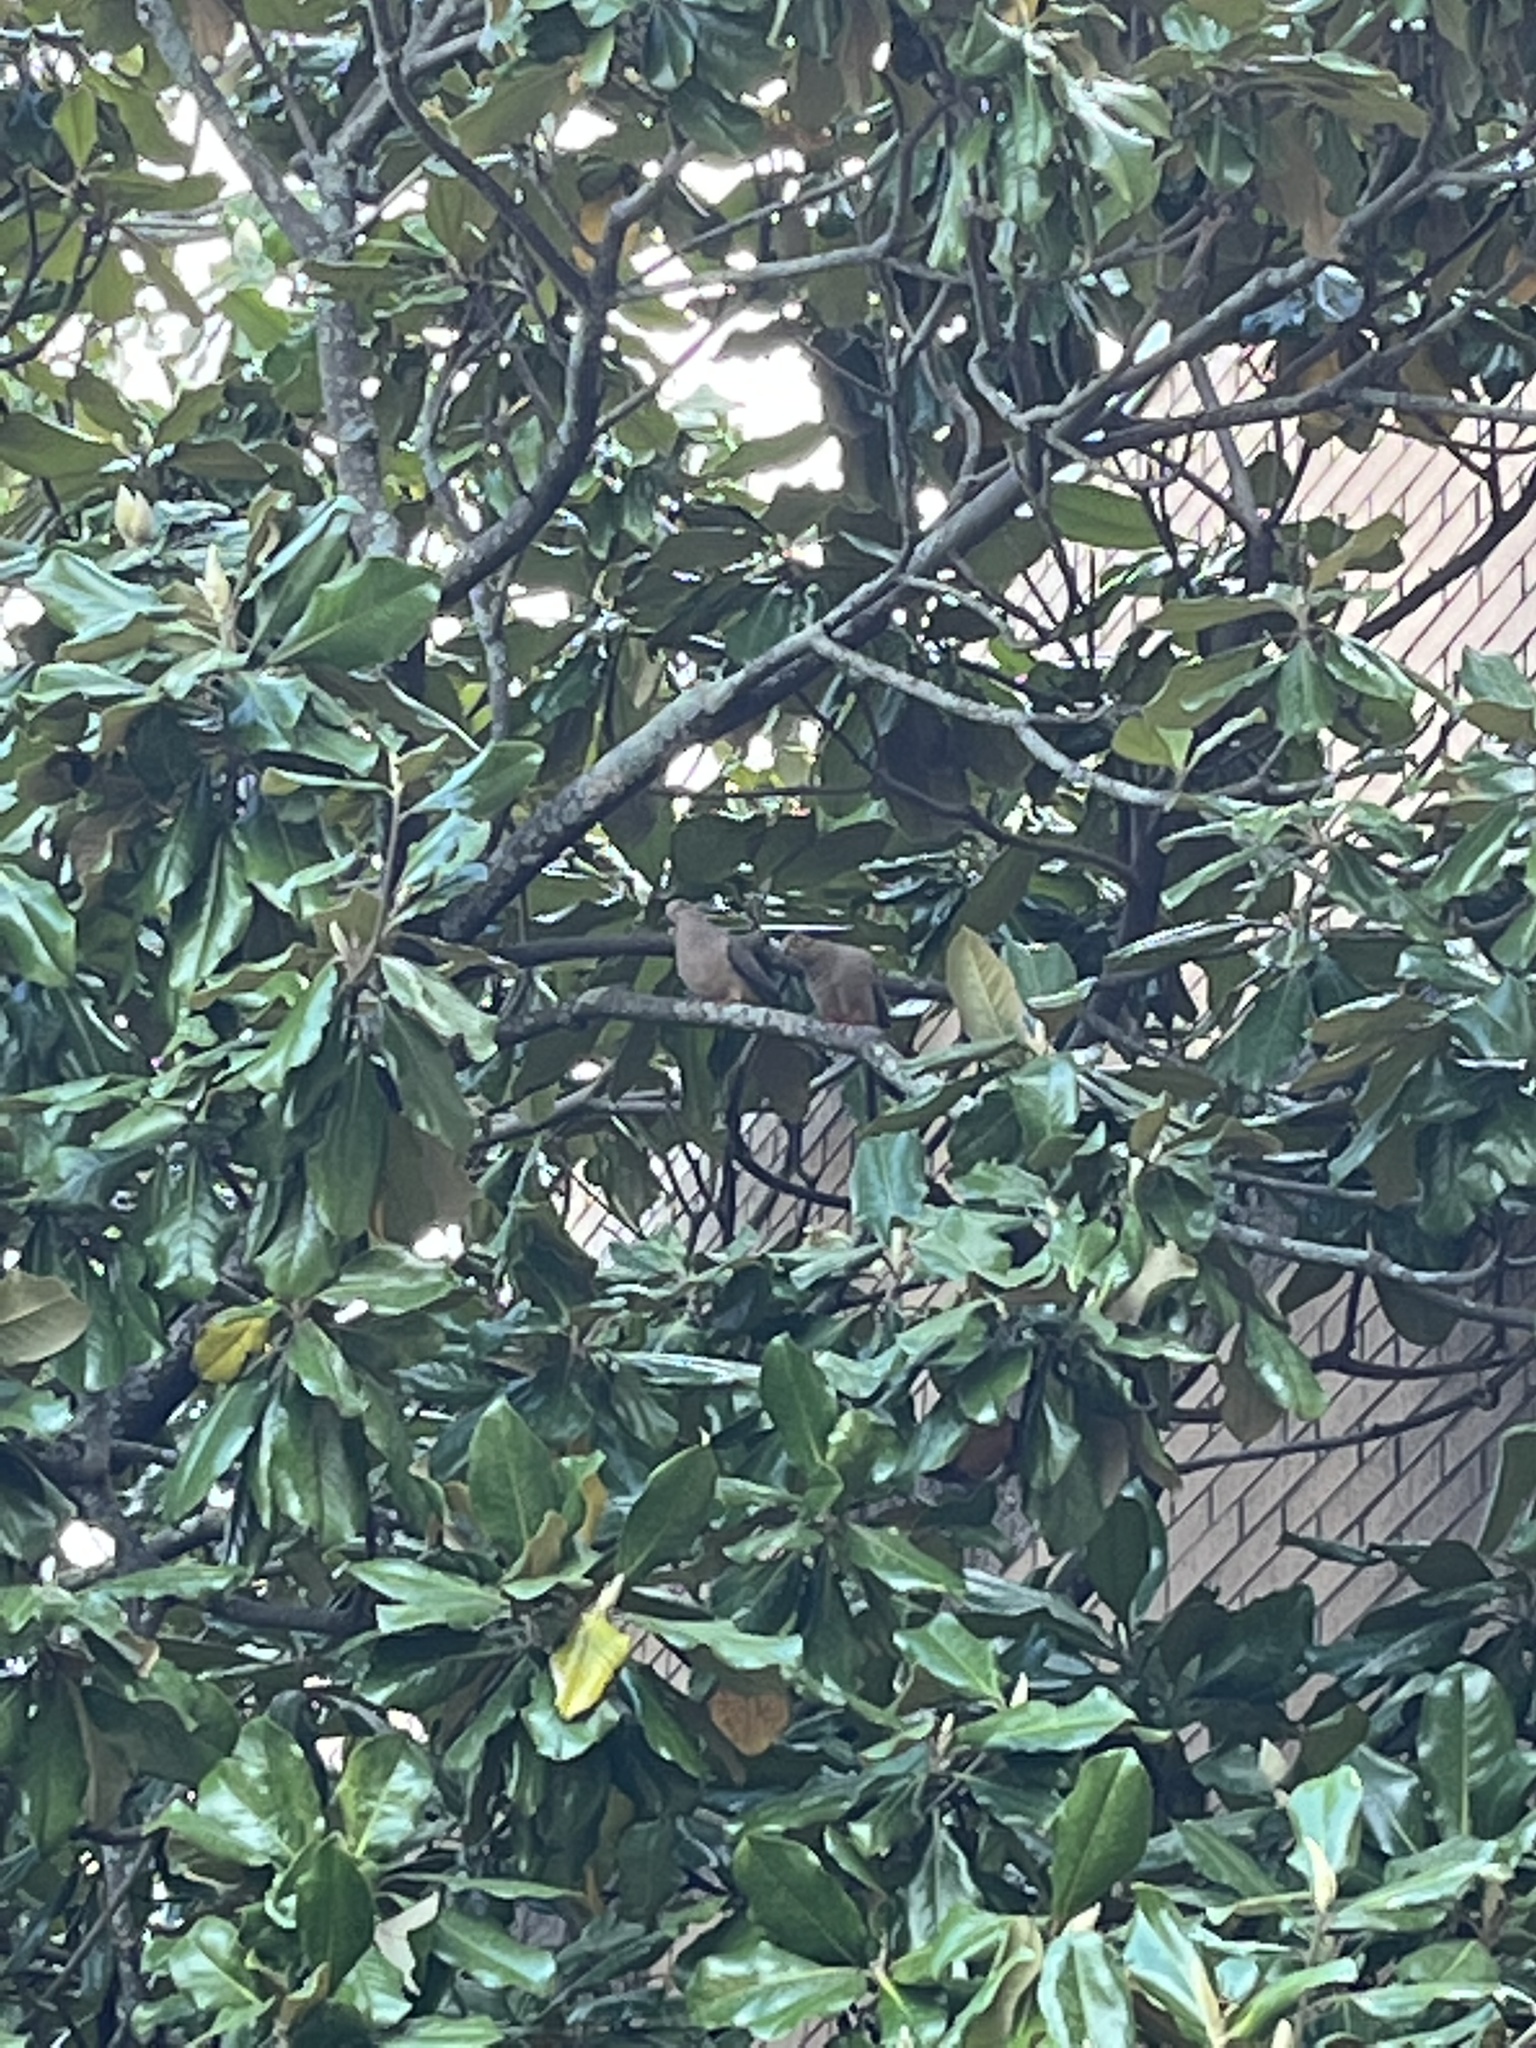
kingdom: Animalia
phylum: Chordata
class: Aves
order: Columbiformes
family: Columbidae
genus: Zenaida
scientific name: Zenaida macroura
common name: Mourning dove
